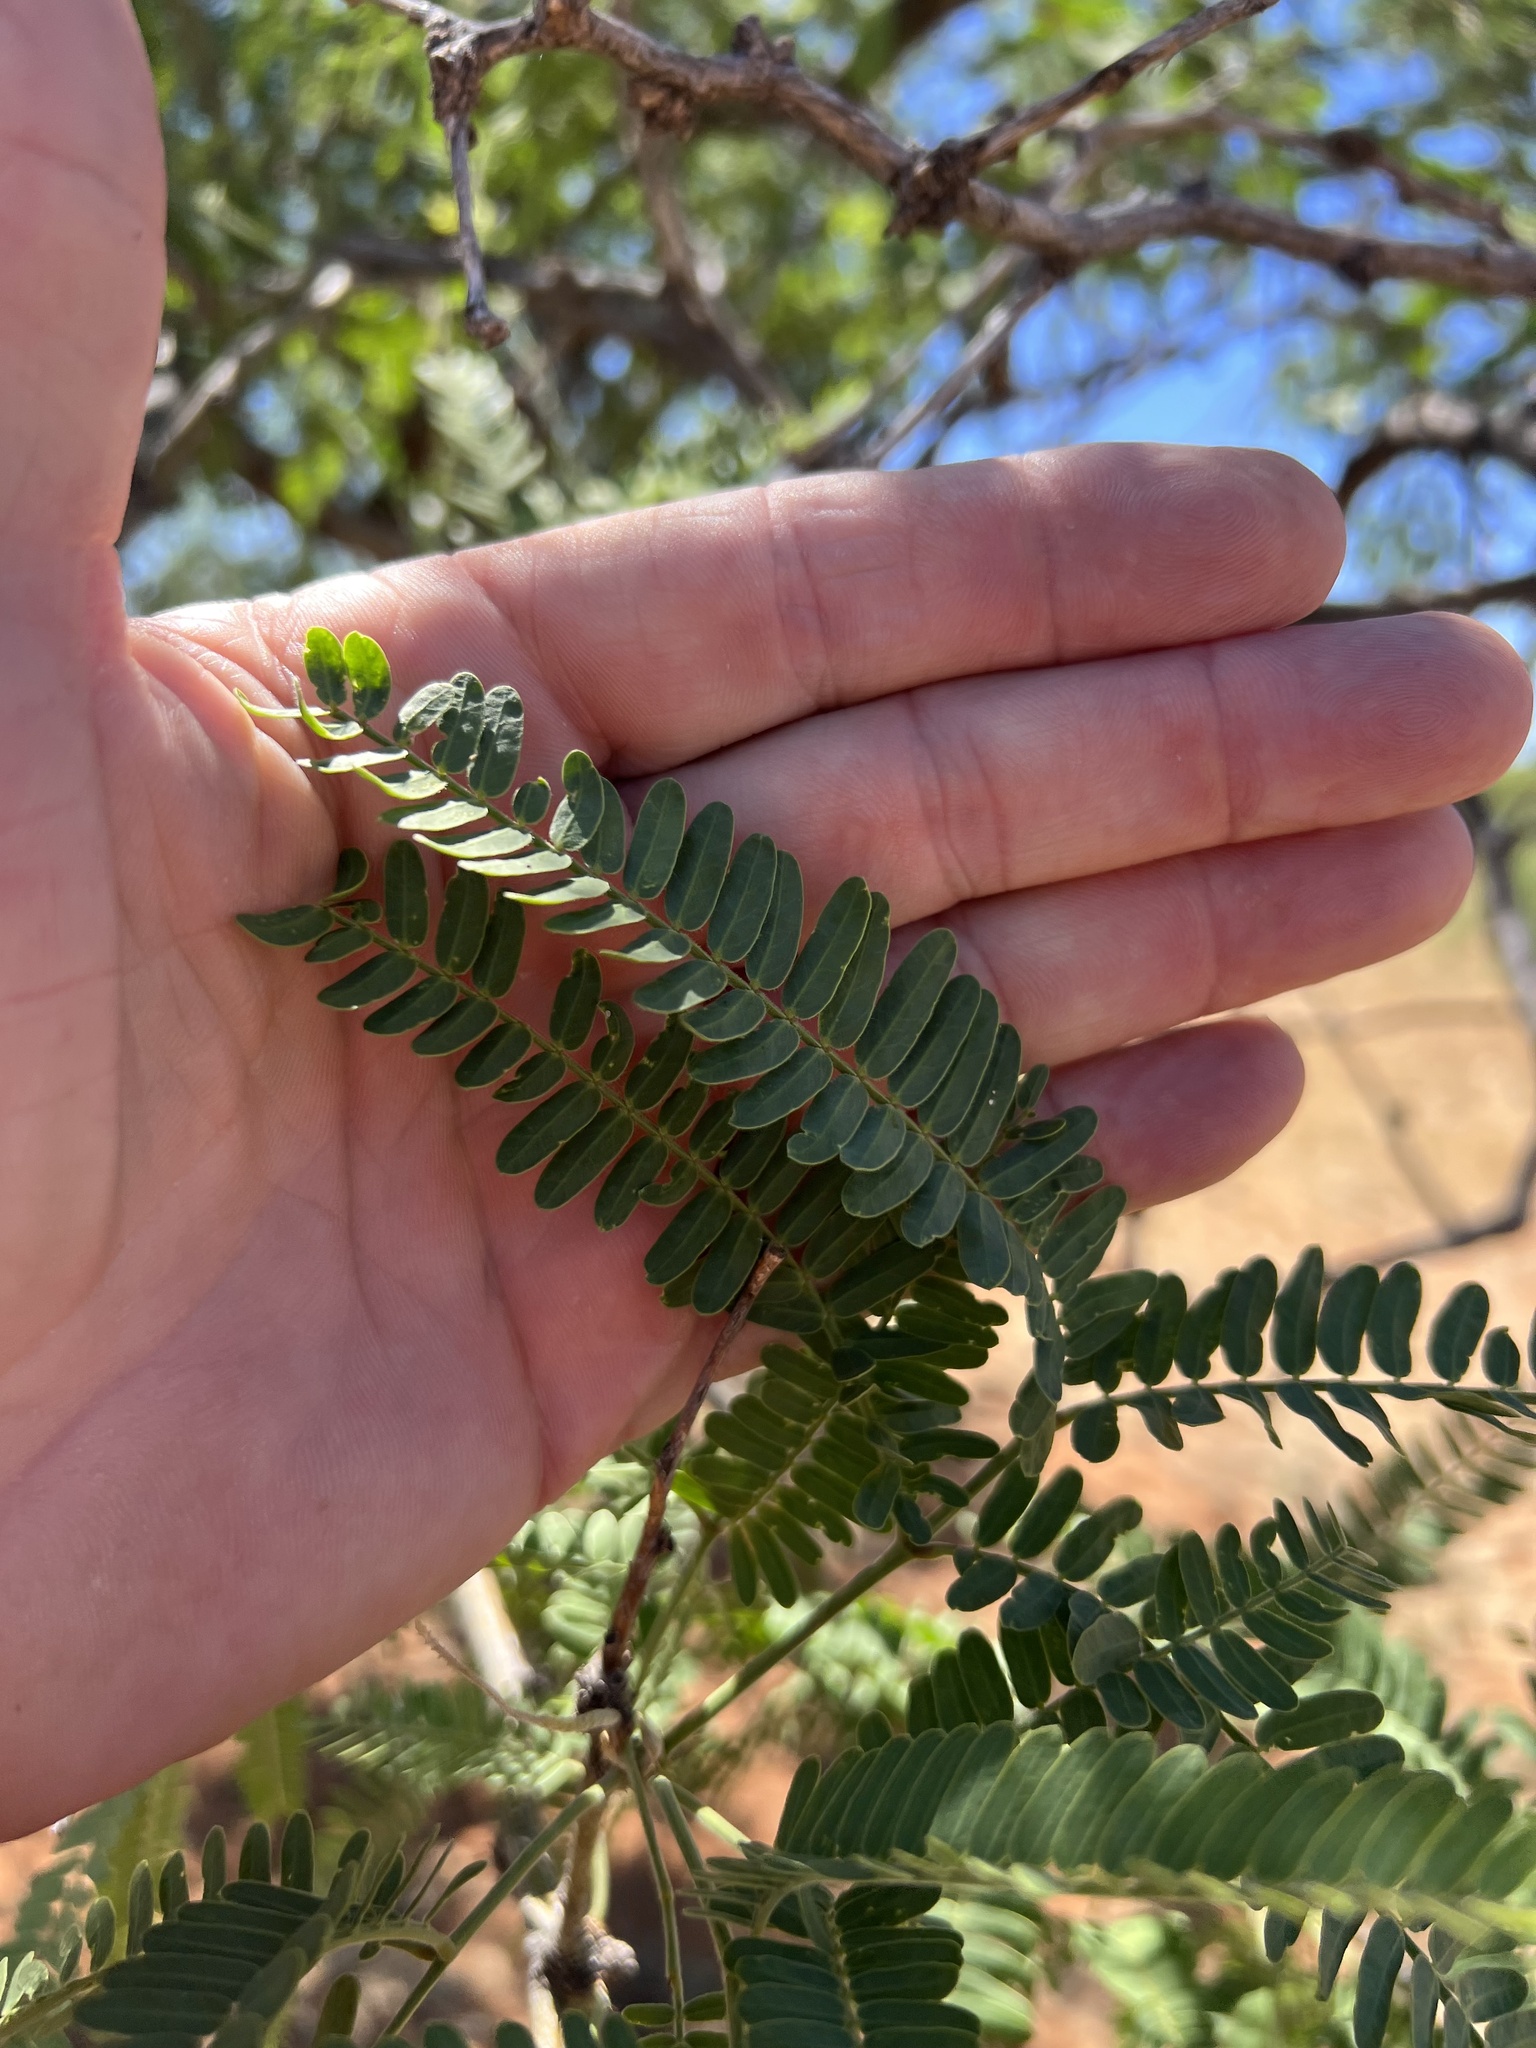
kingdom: Plantae
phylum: Tracheophyta
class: Magnoliopsida
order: Fabales
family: Fabaceae
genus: Prosopis
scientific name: Prosopis velutina
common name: Velvet mesquite
